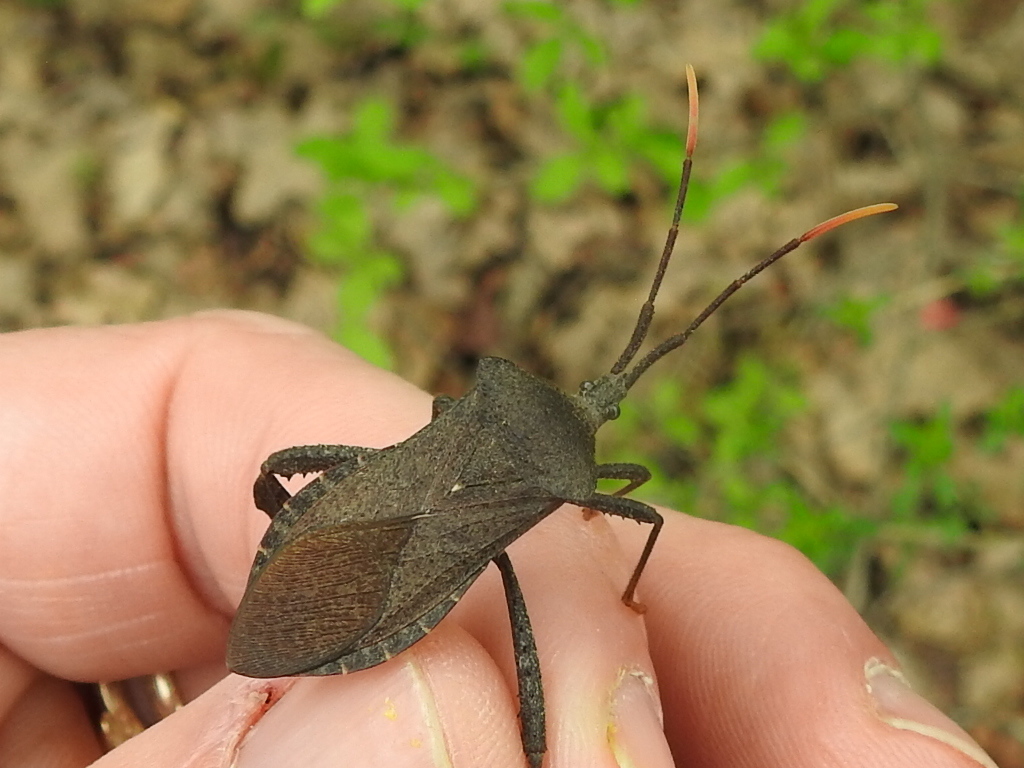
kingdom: Animalia
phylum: Arthropoda
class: Insecta
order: Hemiptera
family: Coreidae
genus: Acanthocephala
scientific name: Acanthocephala terminalis
